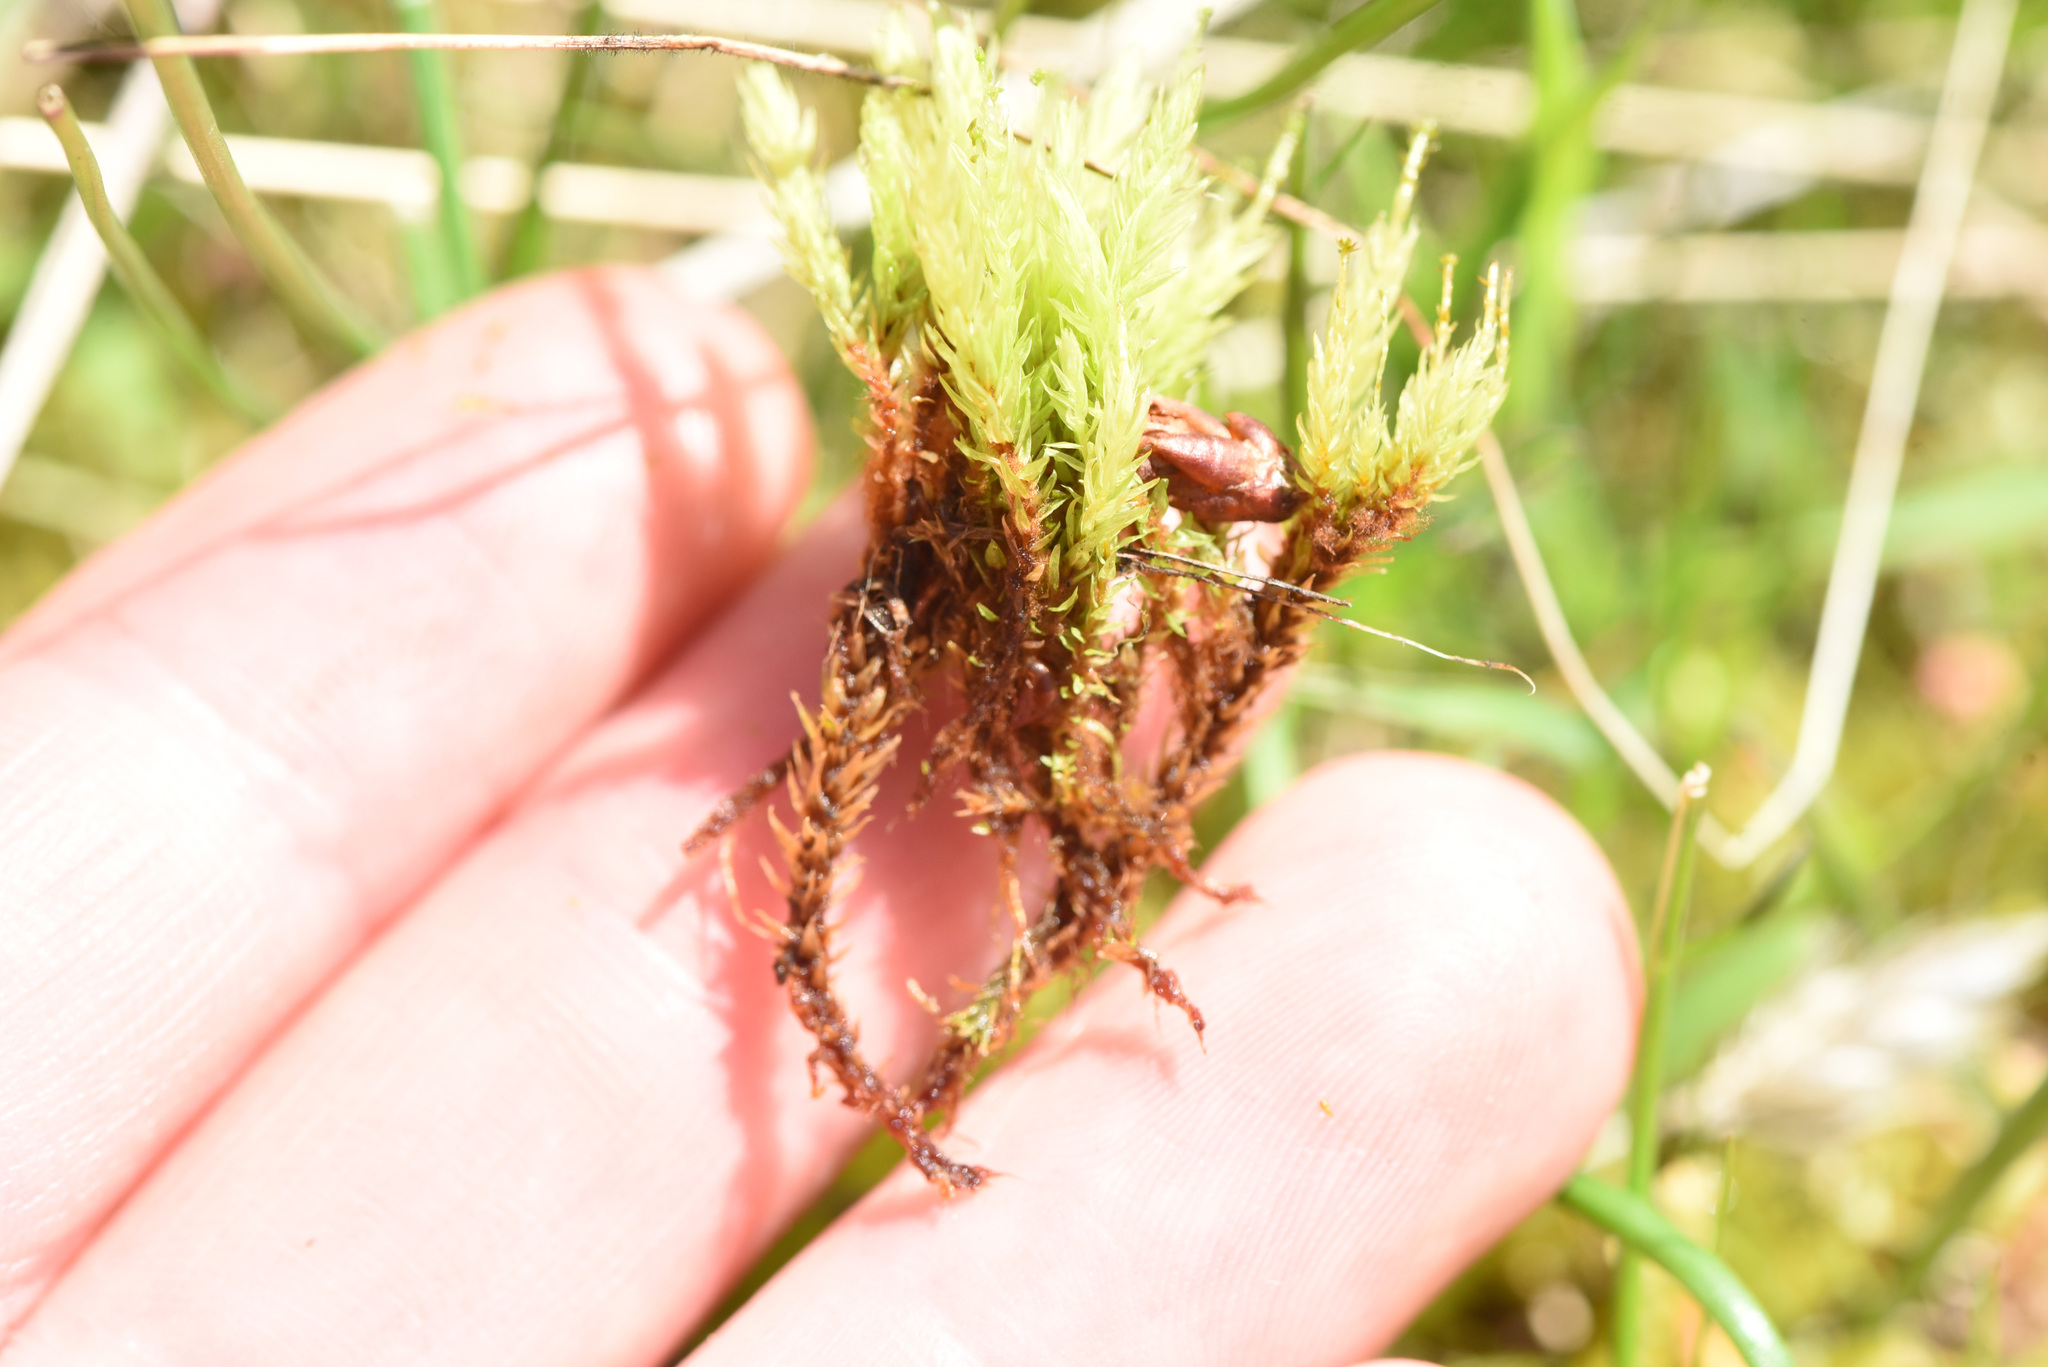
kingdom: Plantae
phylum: Bryophyta
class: Bryopsida
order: Aulacomniales
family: Aulacomniaceae
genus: Aulacomnium
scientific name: Aulacomnium palustre
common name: Bog groove-moss
